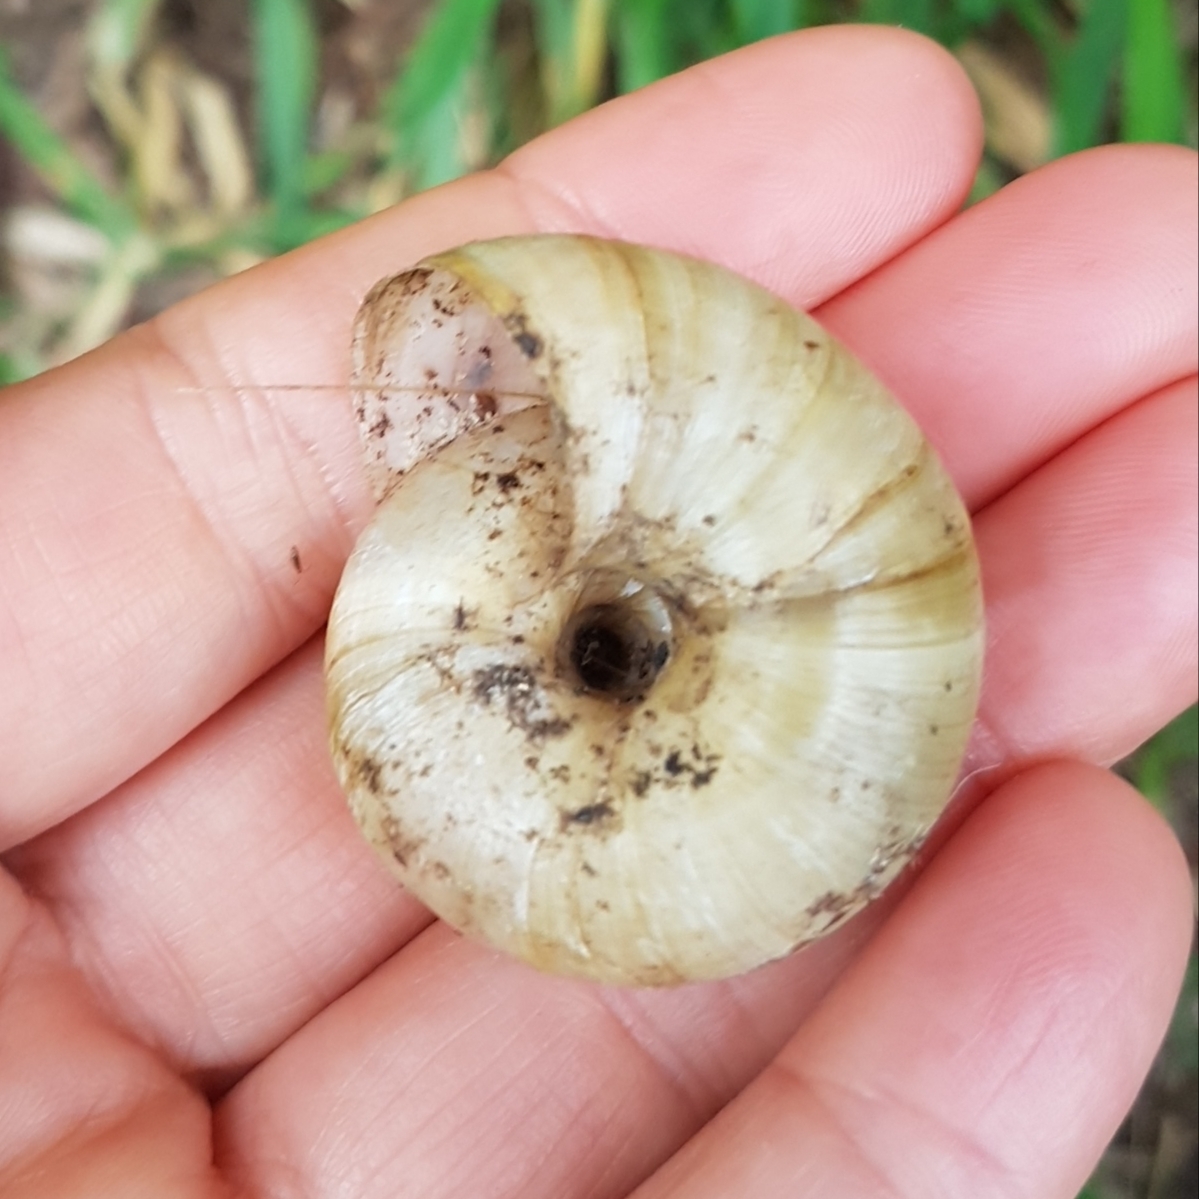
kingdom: Animalia
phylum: Mollusca
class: Gastropoda
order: Stylommatophora
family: Zonitidae
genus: Zonites
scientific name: Zonites algirus
